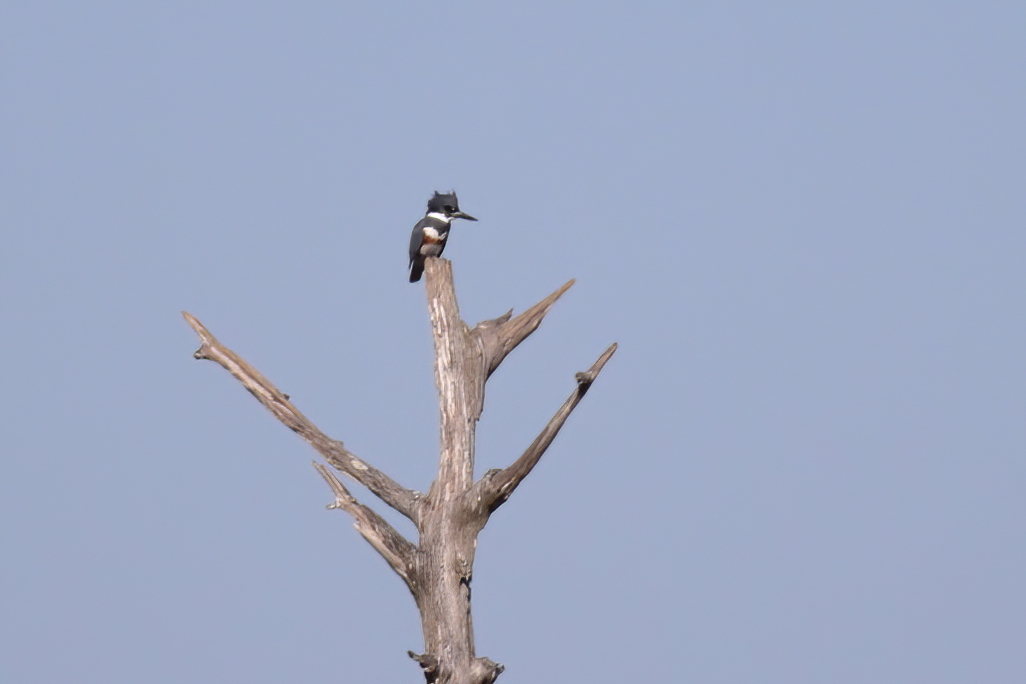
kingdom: Animalia
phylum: Chordata
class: Aves
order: Coraciiformes
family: Alcedinidae
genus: Megaceryle
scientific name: Megaceryle alcyon
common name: Belted kingfisher
